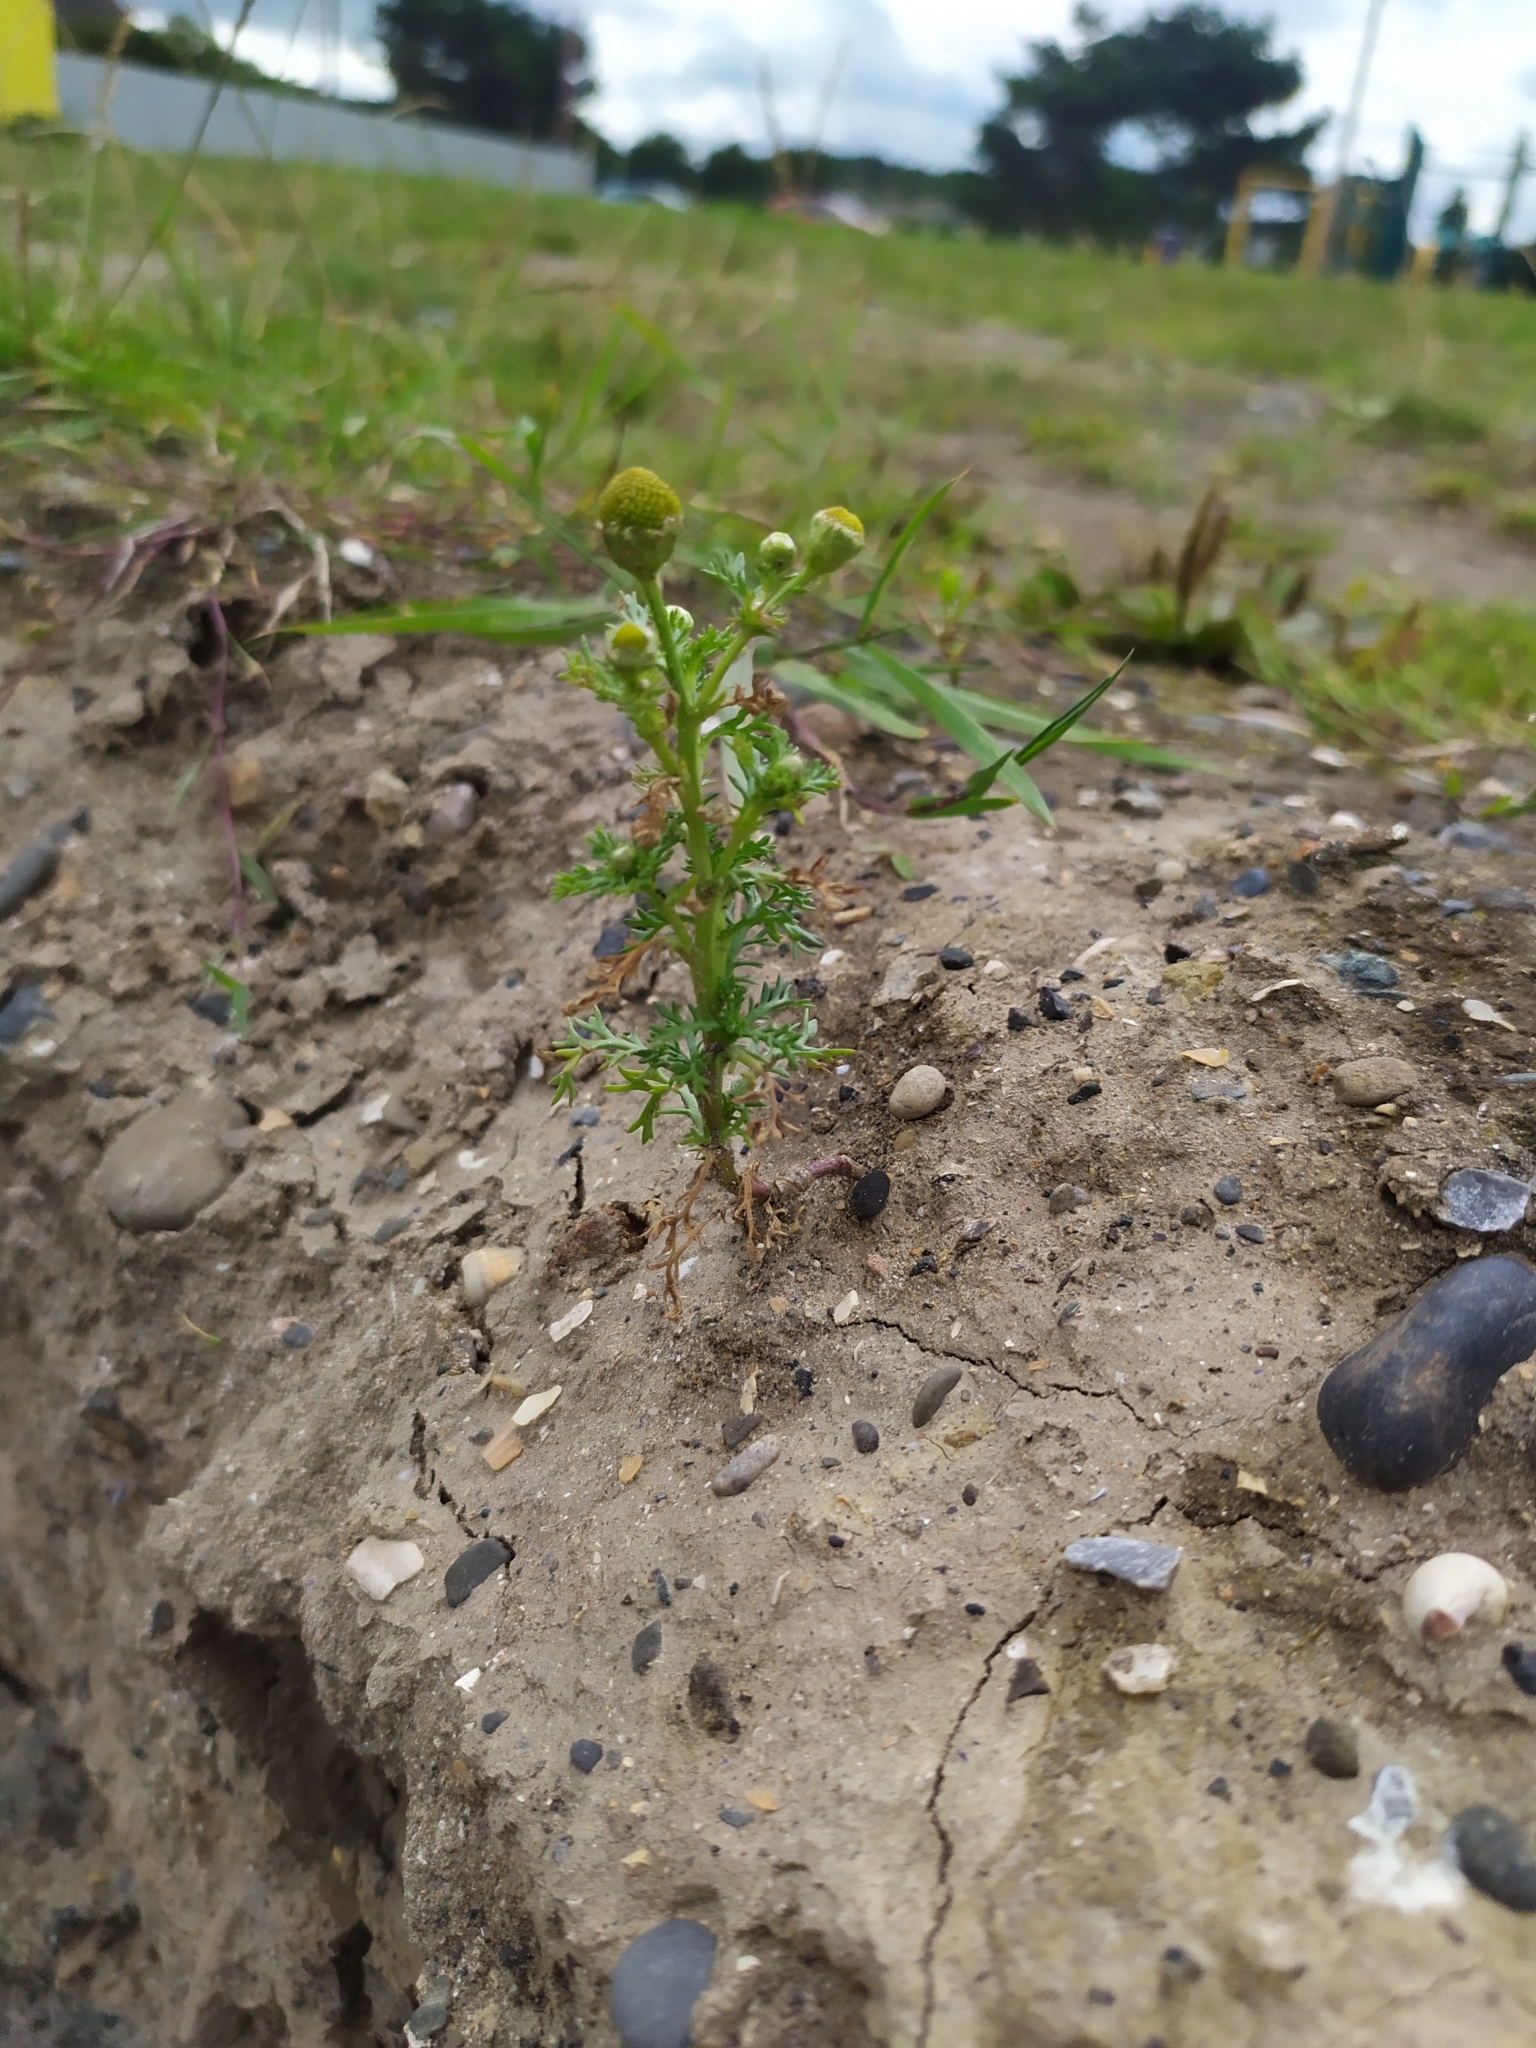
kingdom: Plantae
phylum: Tracheophyta
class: Magnoliopsida
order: Asterales
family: Asteraceae
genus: Matricaria
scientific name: Matricaria discoidea
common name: Disc mayweed
